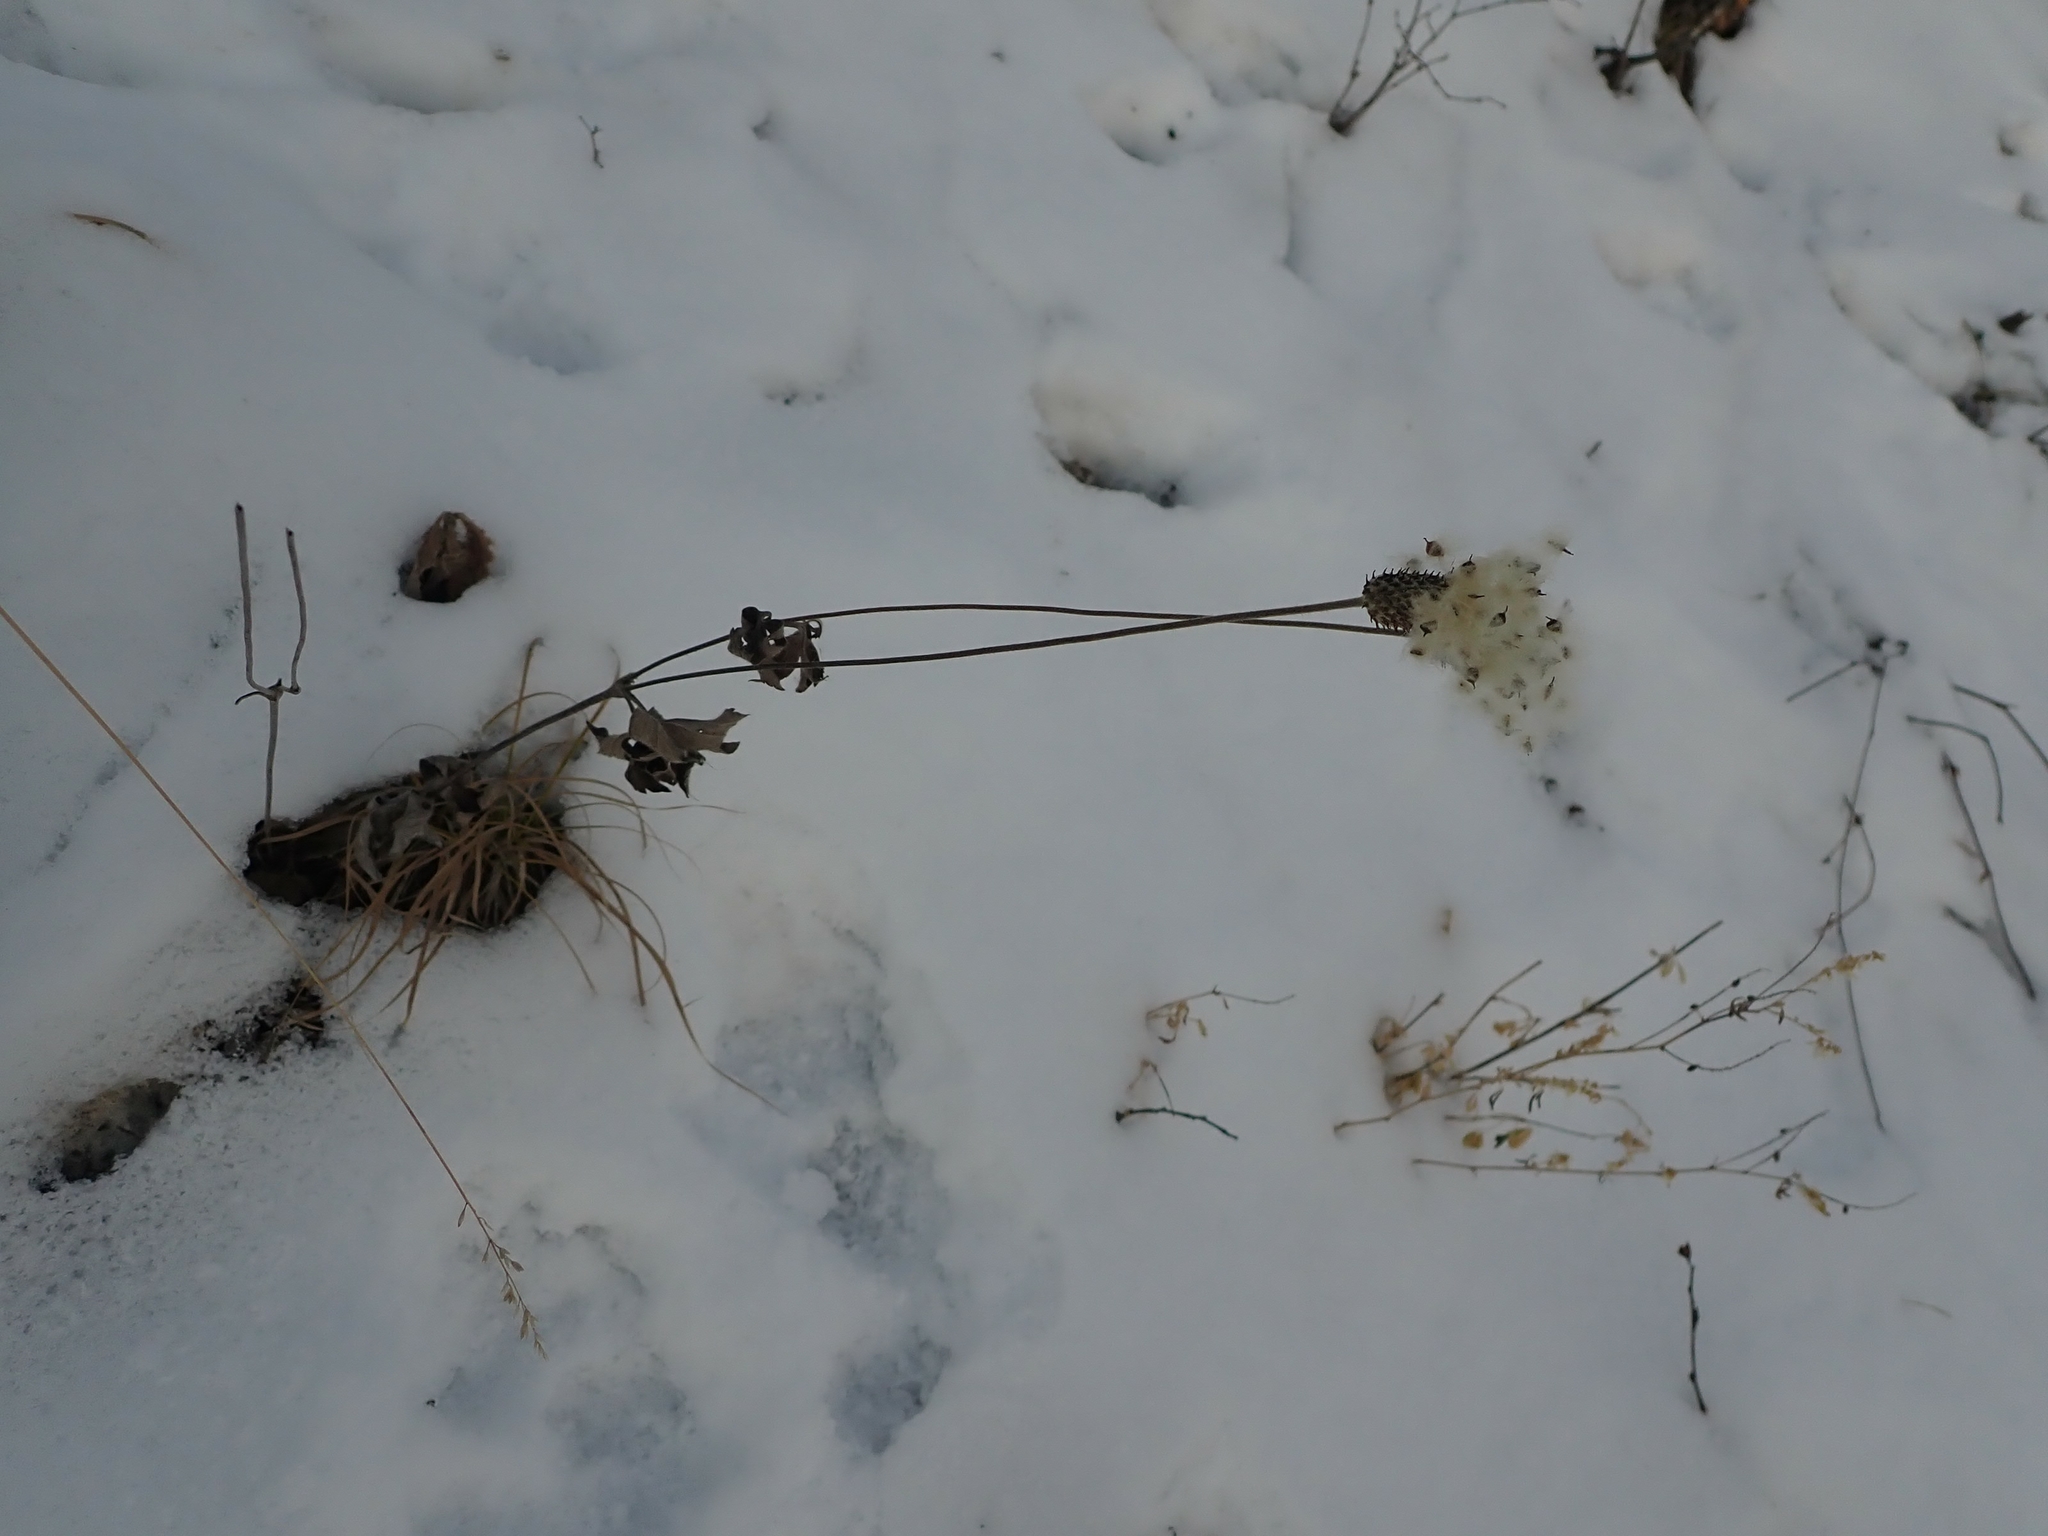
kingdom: Plantae
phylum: Tracheophyta
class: Magnoliopsida
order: Ranunculales
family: Ranunculaceae
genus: Anemone
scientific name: Anemone cylindrica
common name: Candle anemone
